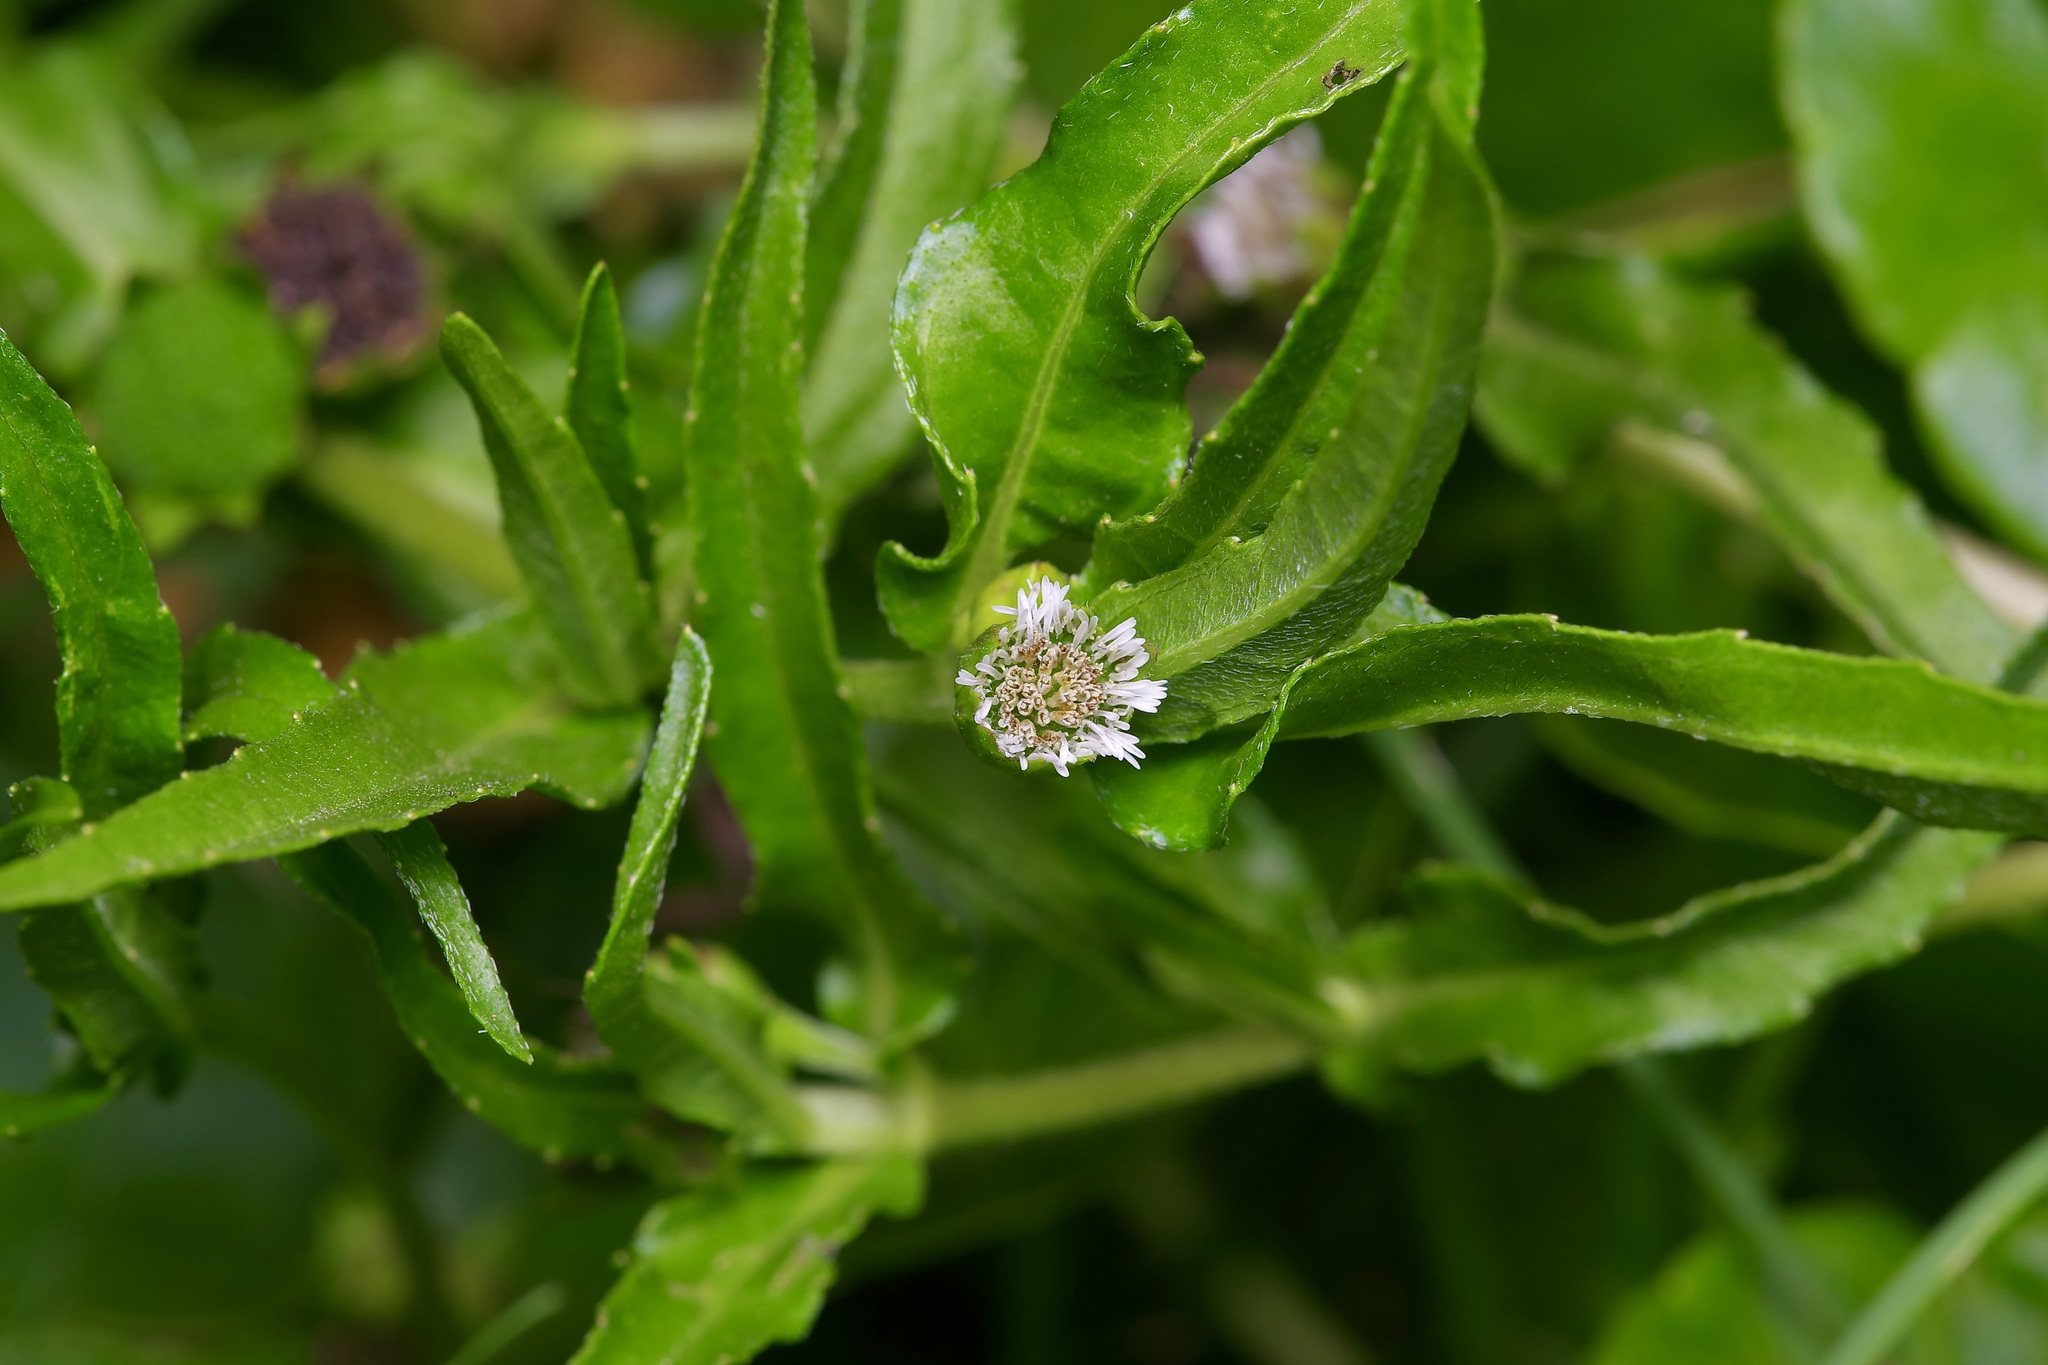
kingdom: Plantae
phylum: Tracheophyta
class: Magnoliopsida
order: Asterales
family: Asteraceae
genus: Eclipta
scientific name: Eclipta prostrata
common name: False daisy
